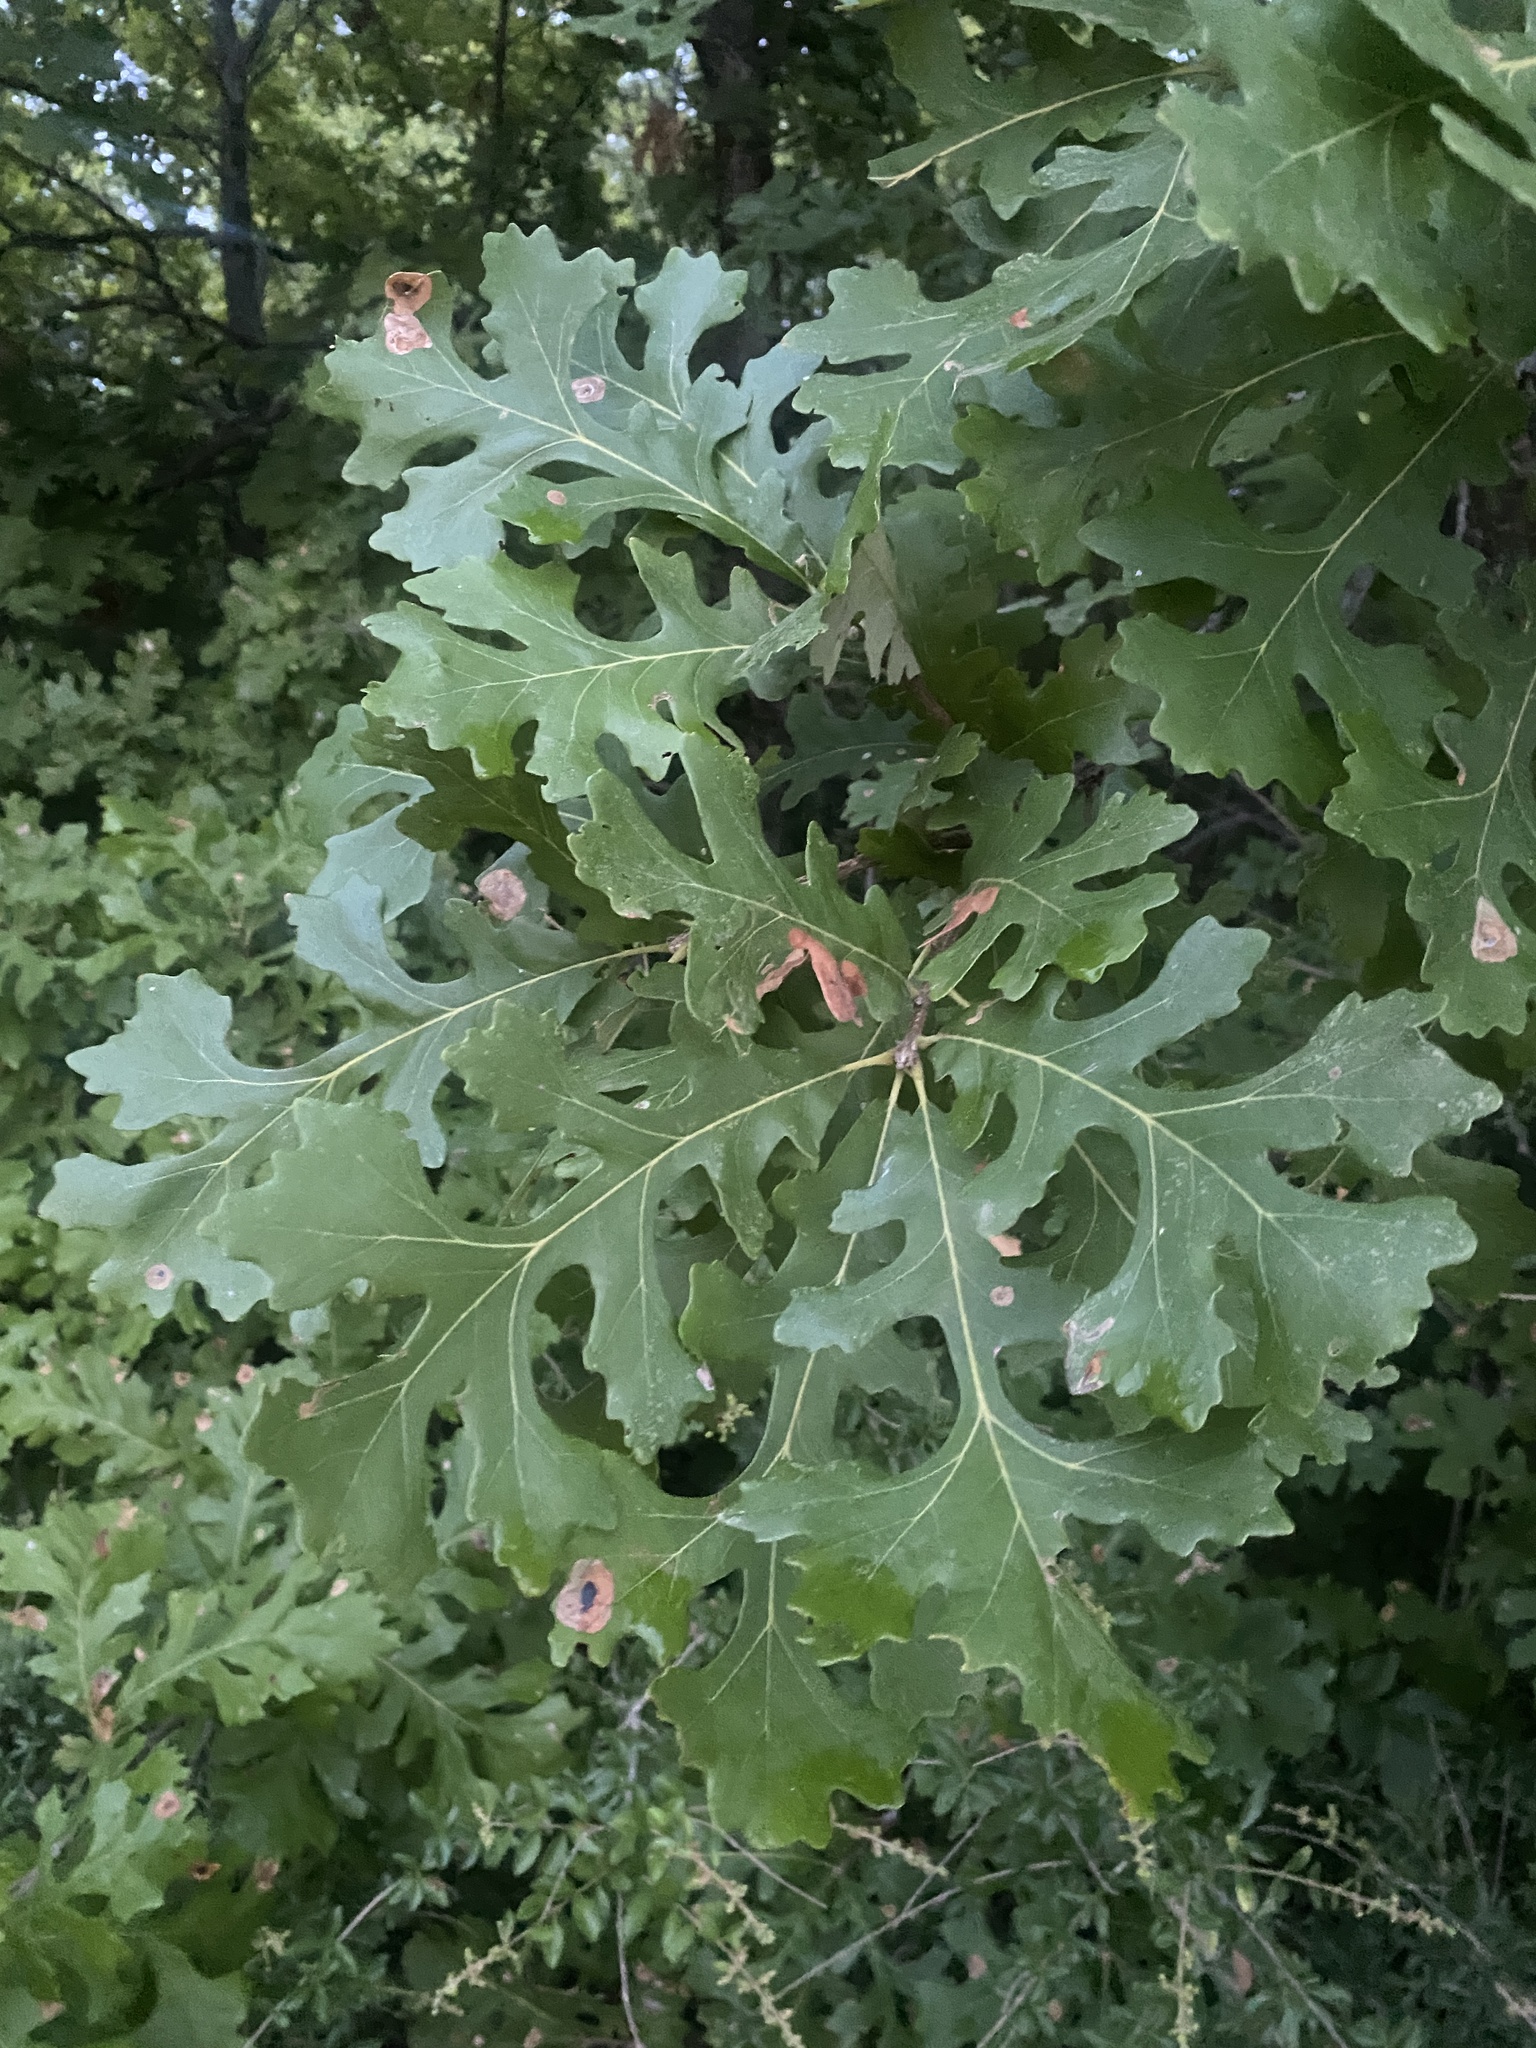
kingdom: Plantae
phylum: Tracheophyta
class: Magnoliopsida
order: Fagales
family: Fagaceae
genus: Quercus
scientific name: Quercus macrocarpa
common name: Bur oak
